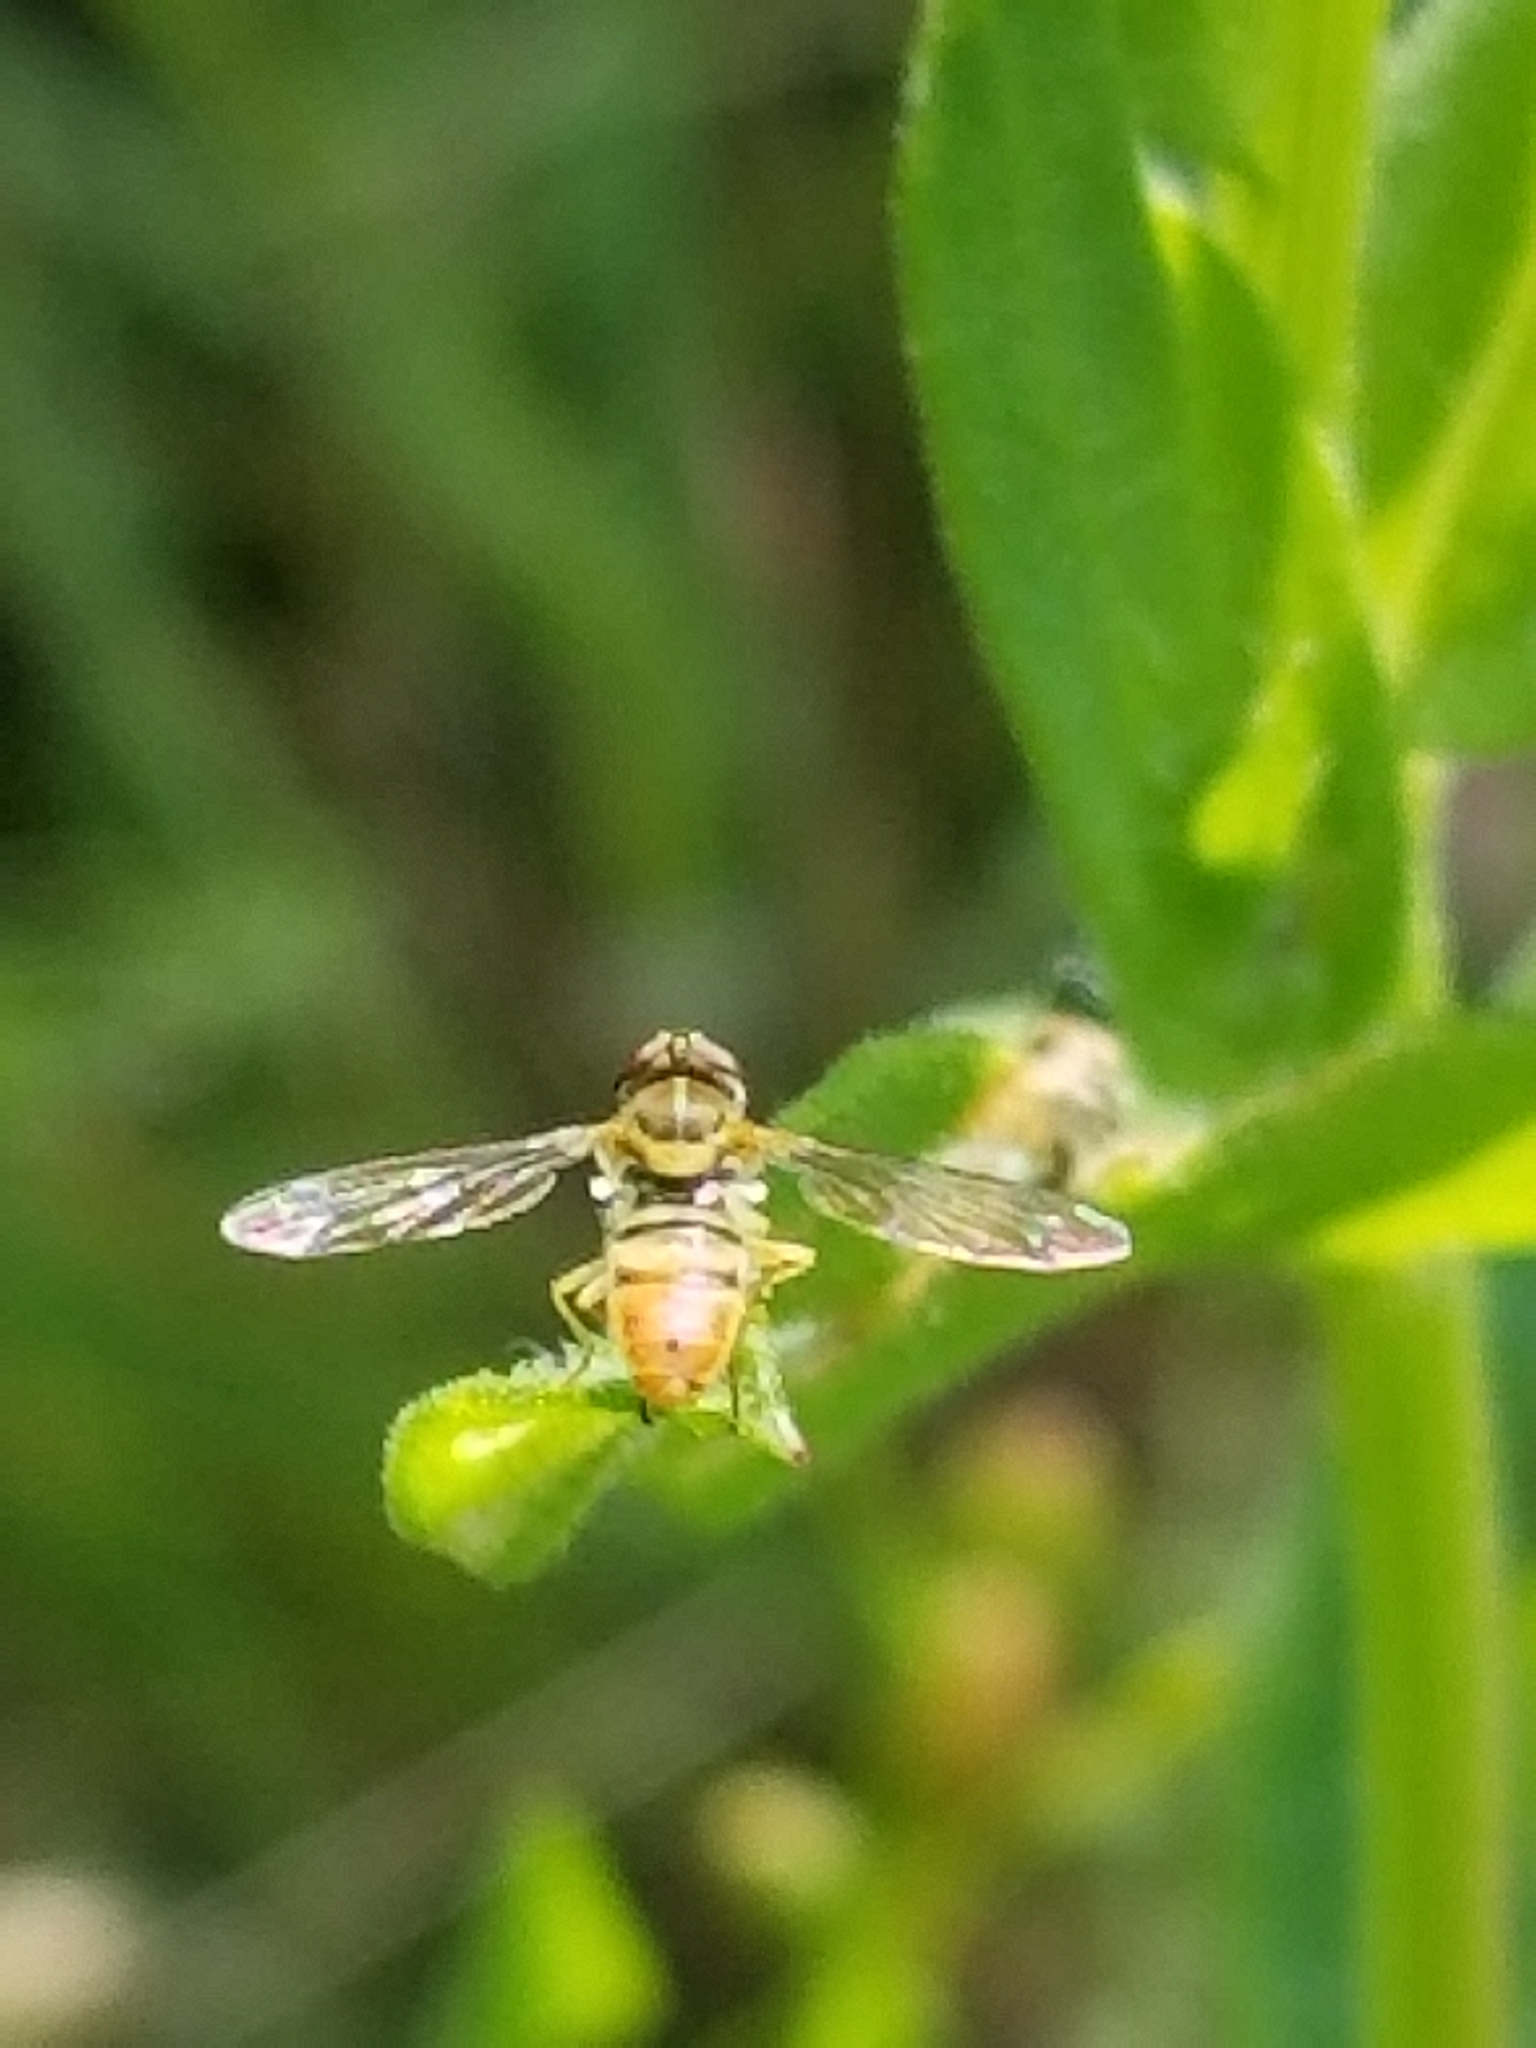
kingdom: Animalia
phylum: Arthropoda
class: Insecta
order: Diptera
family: Syrphidae
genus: Toxomerus
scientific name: Toxomerus marginatus
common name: Syrphid fly
